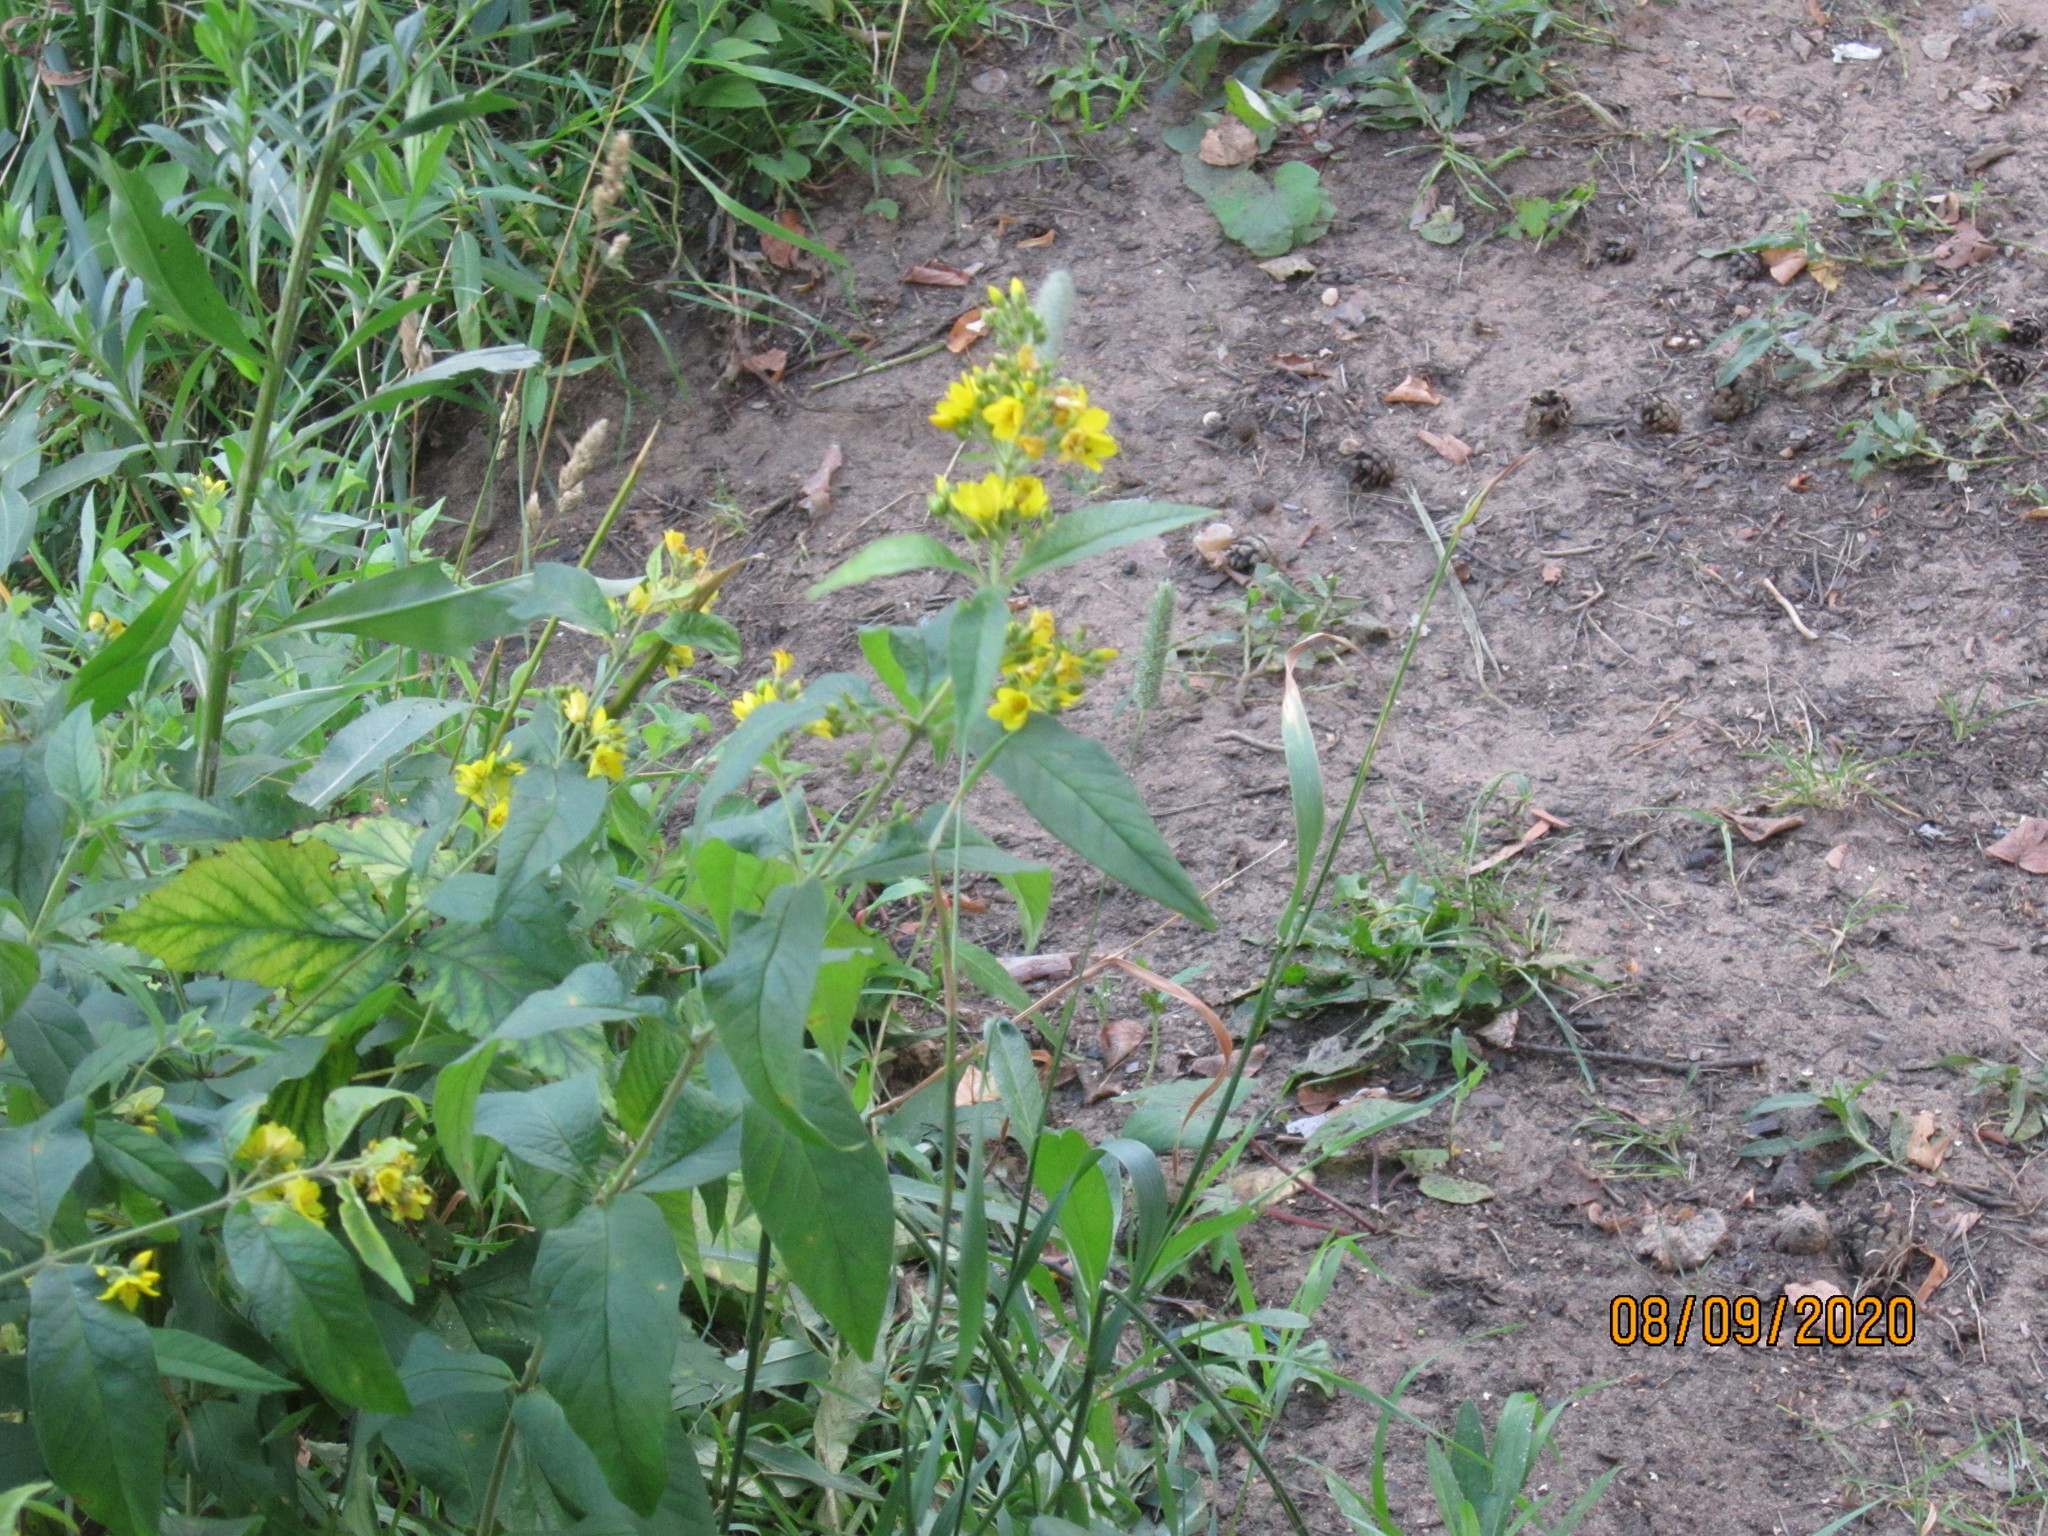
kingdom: Plantae
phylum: Tracheophyta
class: Magnoliopsida
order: Ericales
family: Primulaceae
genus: Lysimachia
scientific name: Lysimachia vulgaris
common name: Yellow loosestrife
